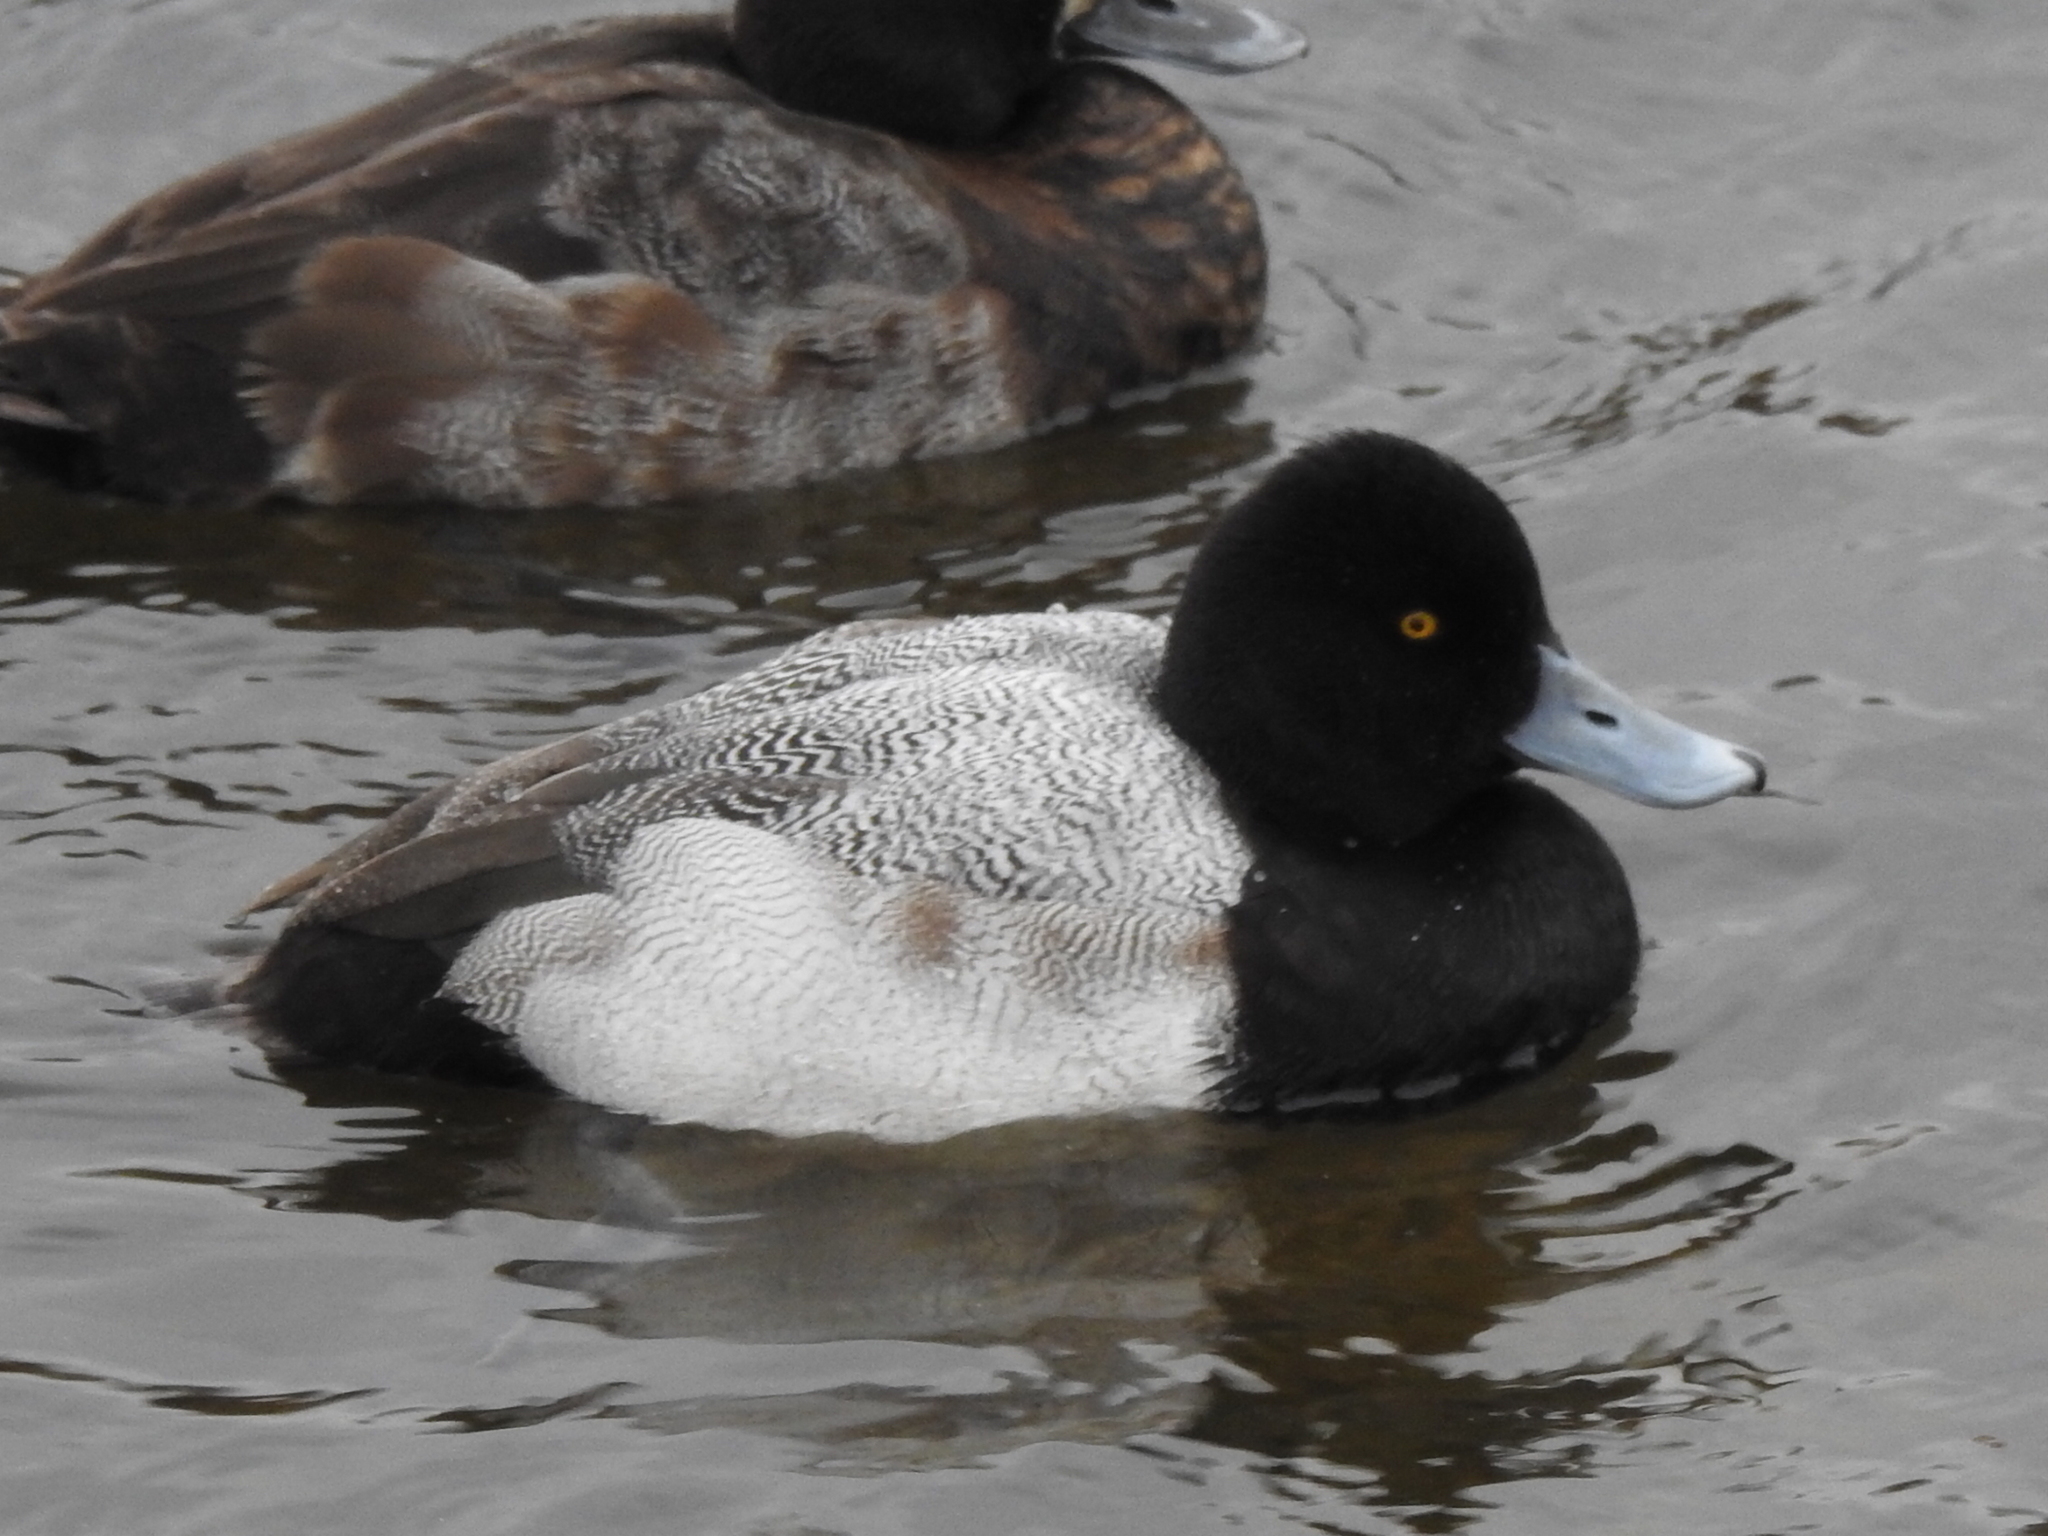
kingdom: Animalia
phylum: Chordata
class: Aves
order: Anseriformes
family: Anatidae
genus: Aythya
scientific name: Aythya affinis
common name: Lesser scaup
